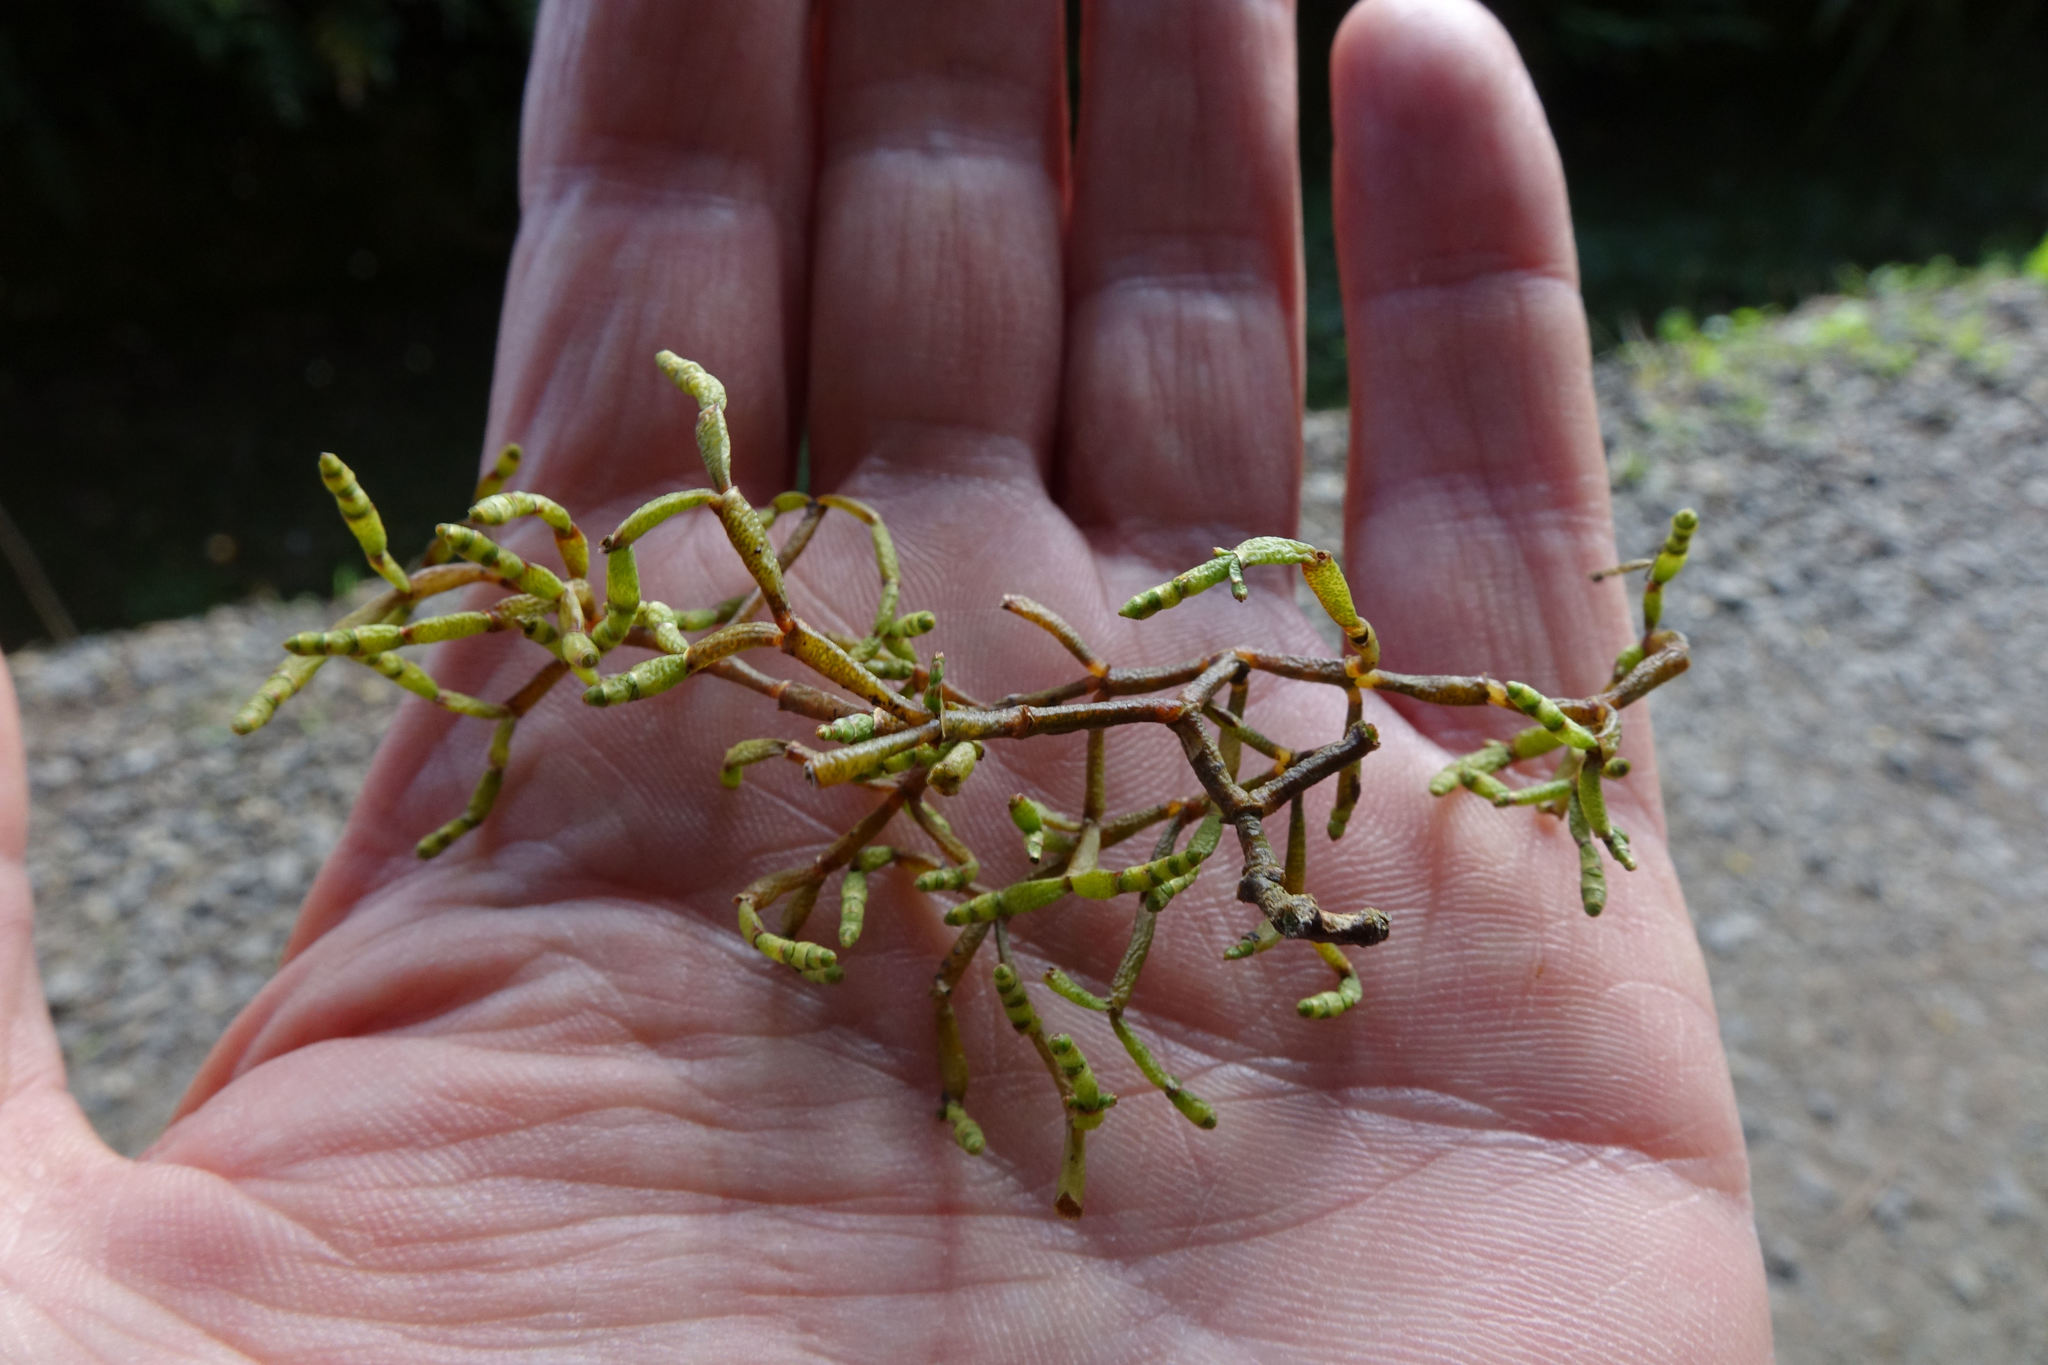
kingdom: Plantae
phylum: Tracheophyta
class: Magnoliopsida
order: Santalales
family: Viscaceae
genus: Korthalsella
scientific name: Korthalsella salicornioides
